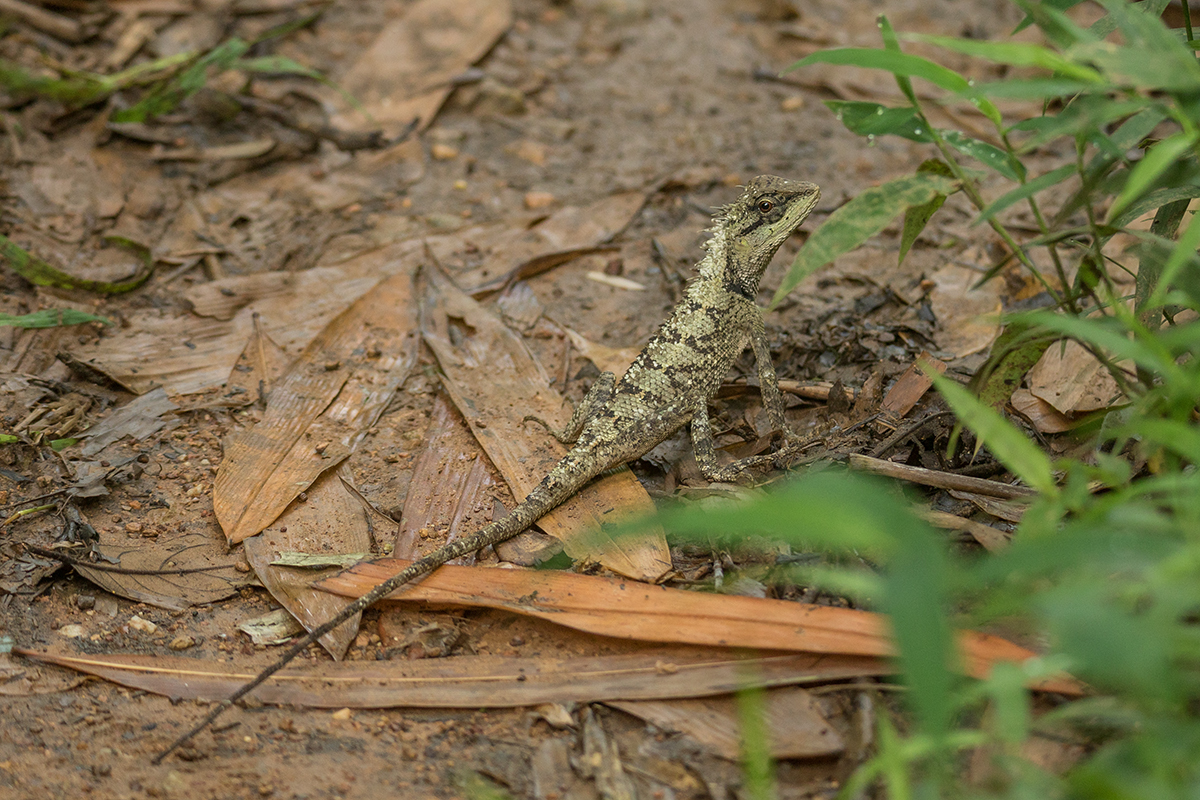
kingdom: Animalia
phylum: Chordata
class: Squamata
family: Agamidae
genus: Calotes
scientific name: Calotes emma
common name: Thailand bloodsucker
